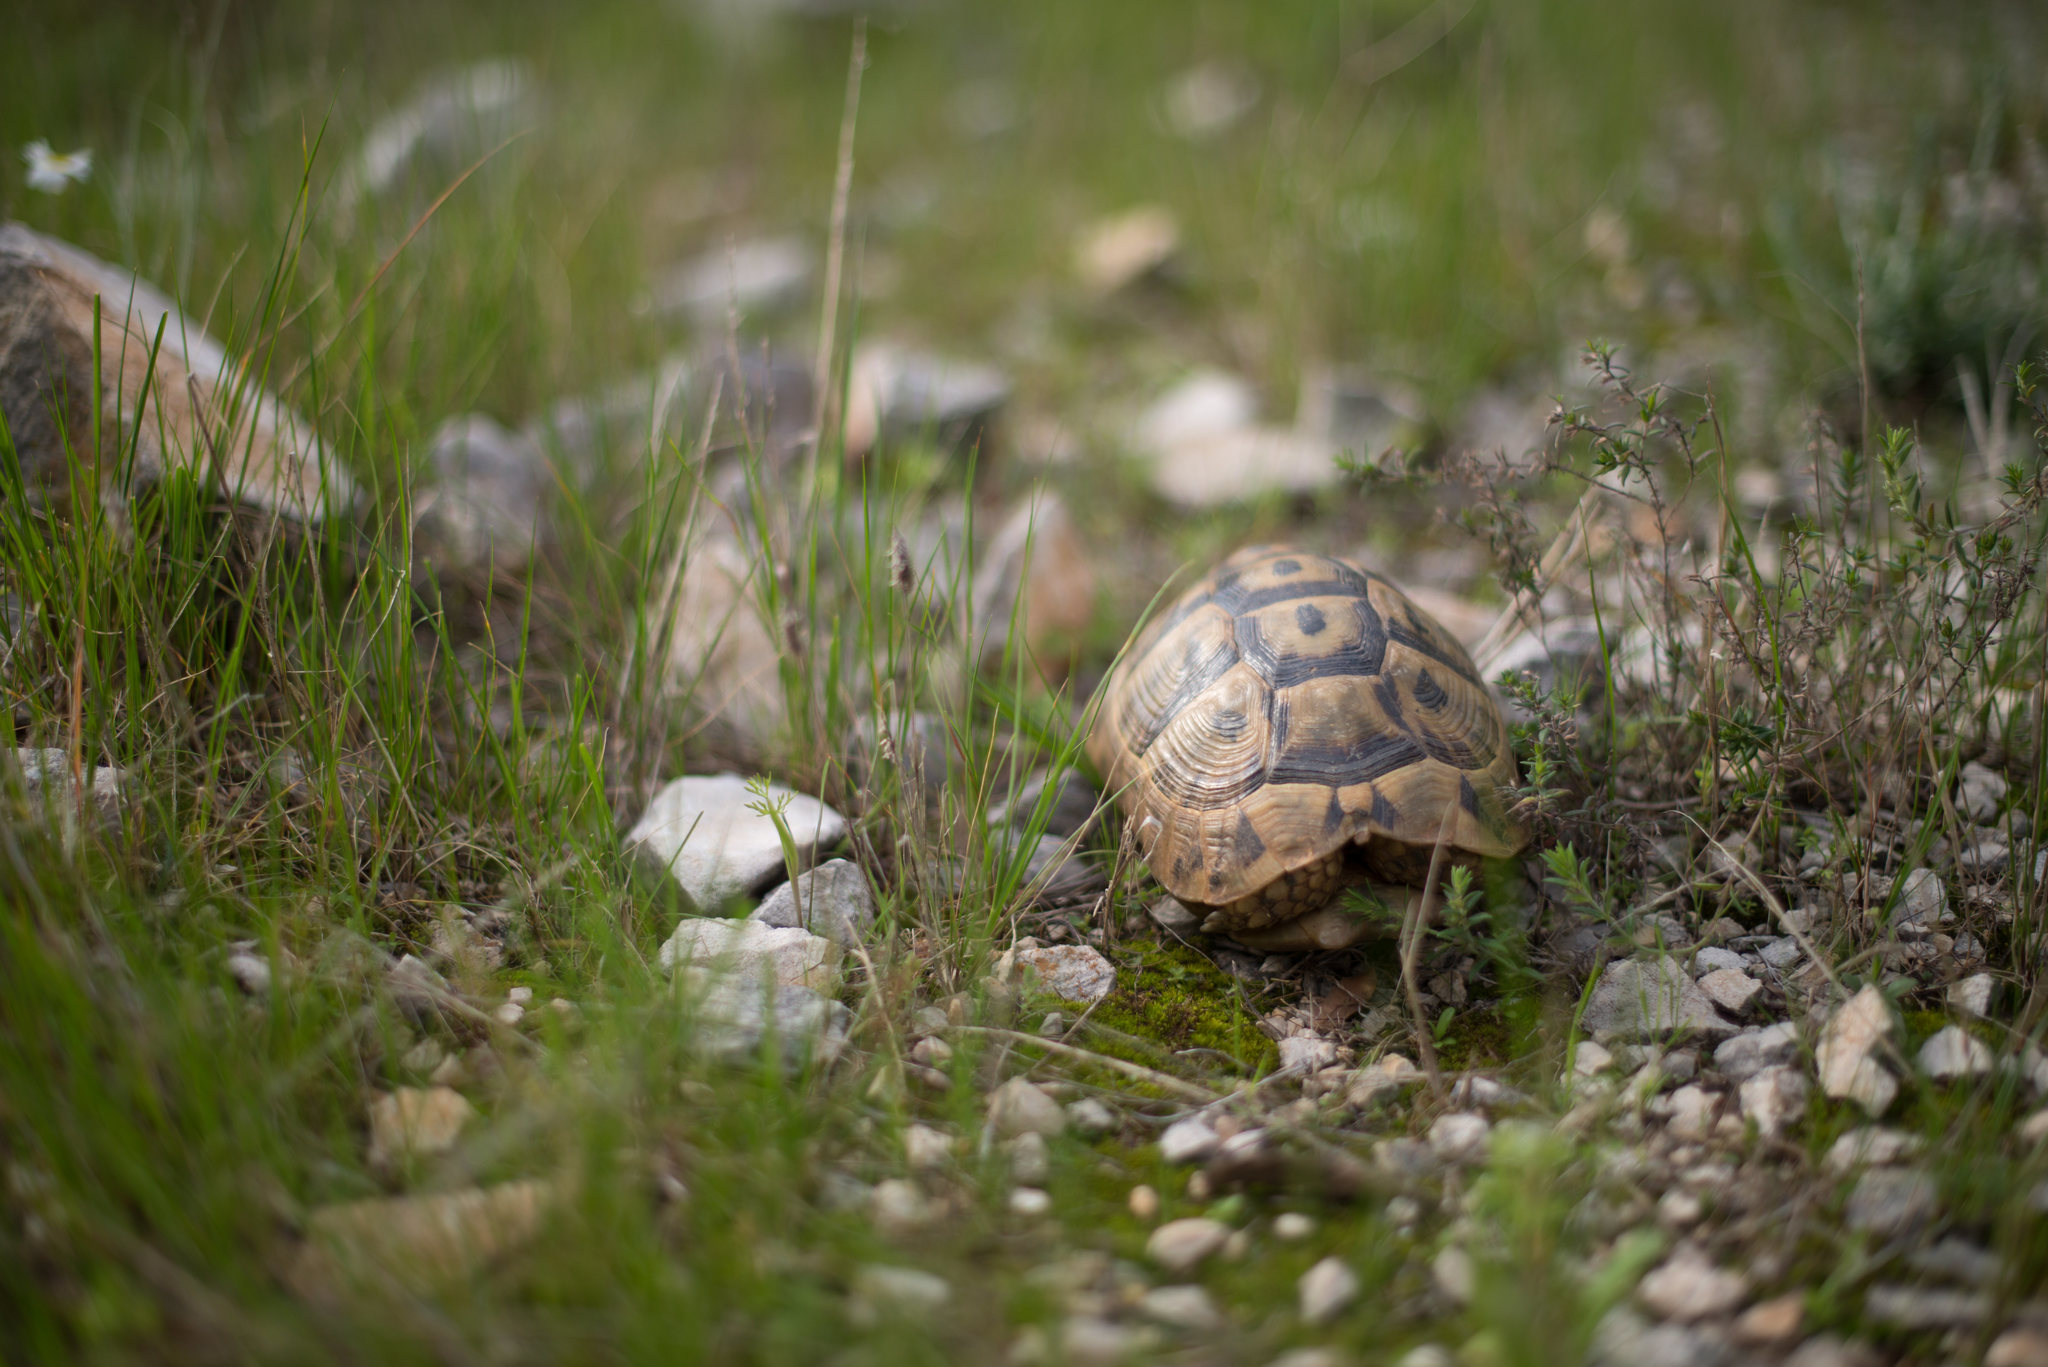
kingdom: Animalia
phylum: Chordata
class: Testudines
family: Testudinidae
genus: Testudo
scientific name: Testudo graeca
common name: Common tortoise
